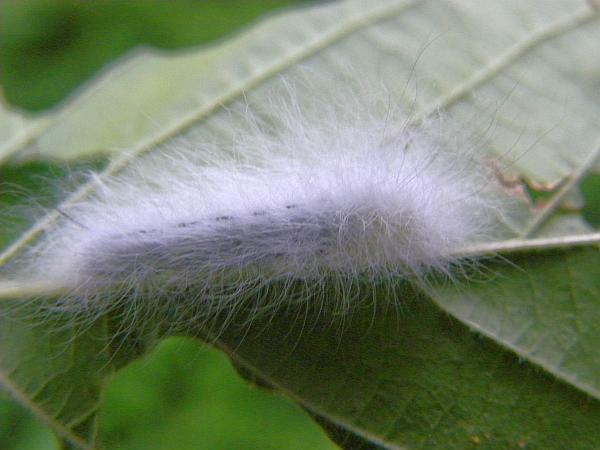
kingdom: Animalia
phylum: Arthropoda
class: Insecta
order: Lepidoptera
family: Apatelodidae
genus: Hygrochroa
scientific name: Hygrochroa Apatelodes torrefacta
